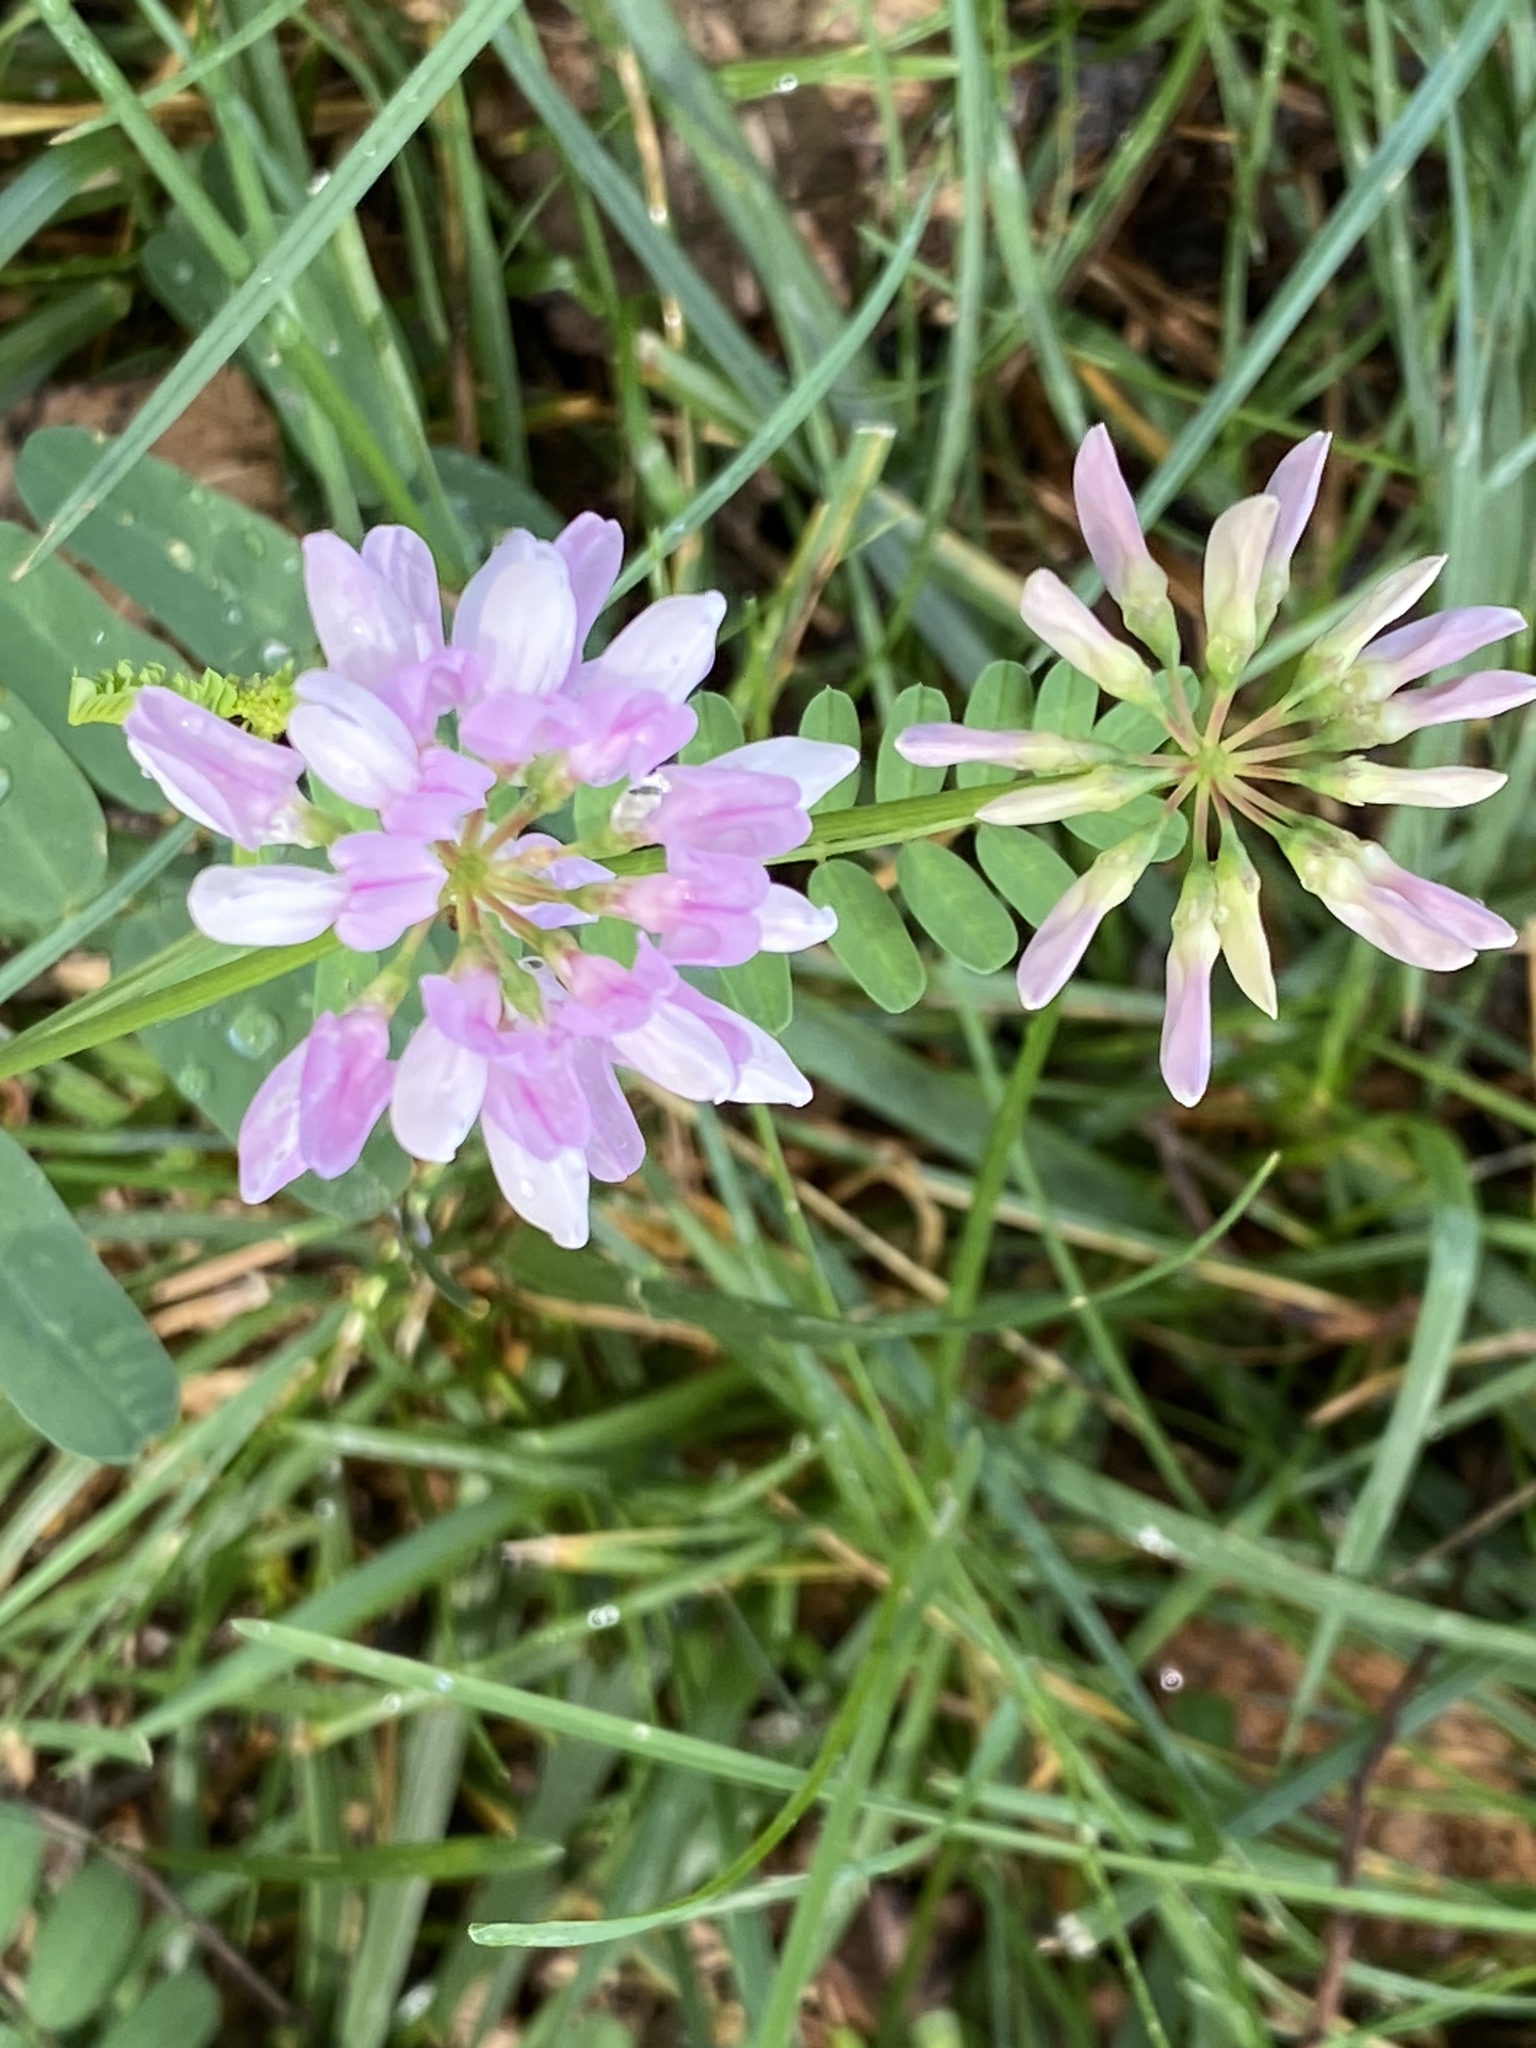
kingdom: Plantae
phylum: Tracheophyta
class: Magnoliopsida
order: Fabales
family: Fabaceae
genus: Coronilla
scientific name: Coronilla varia
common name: Crownvetch
